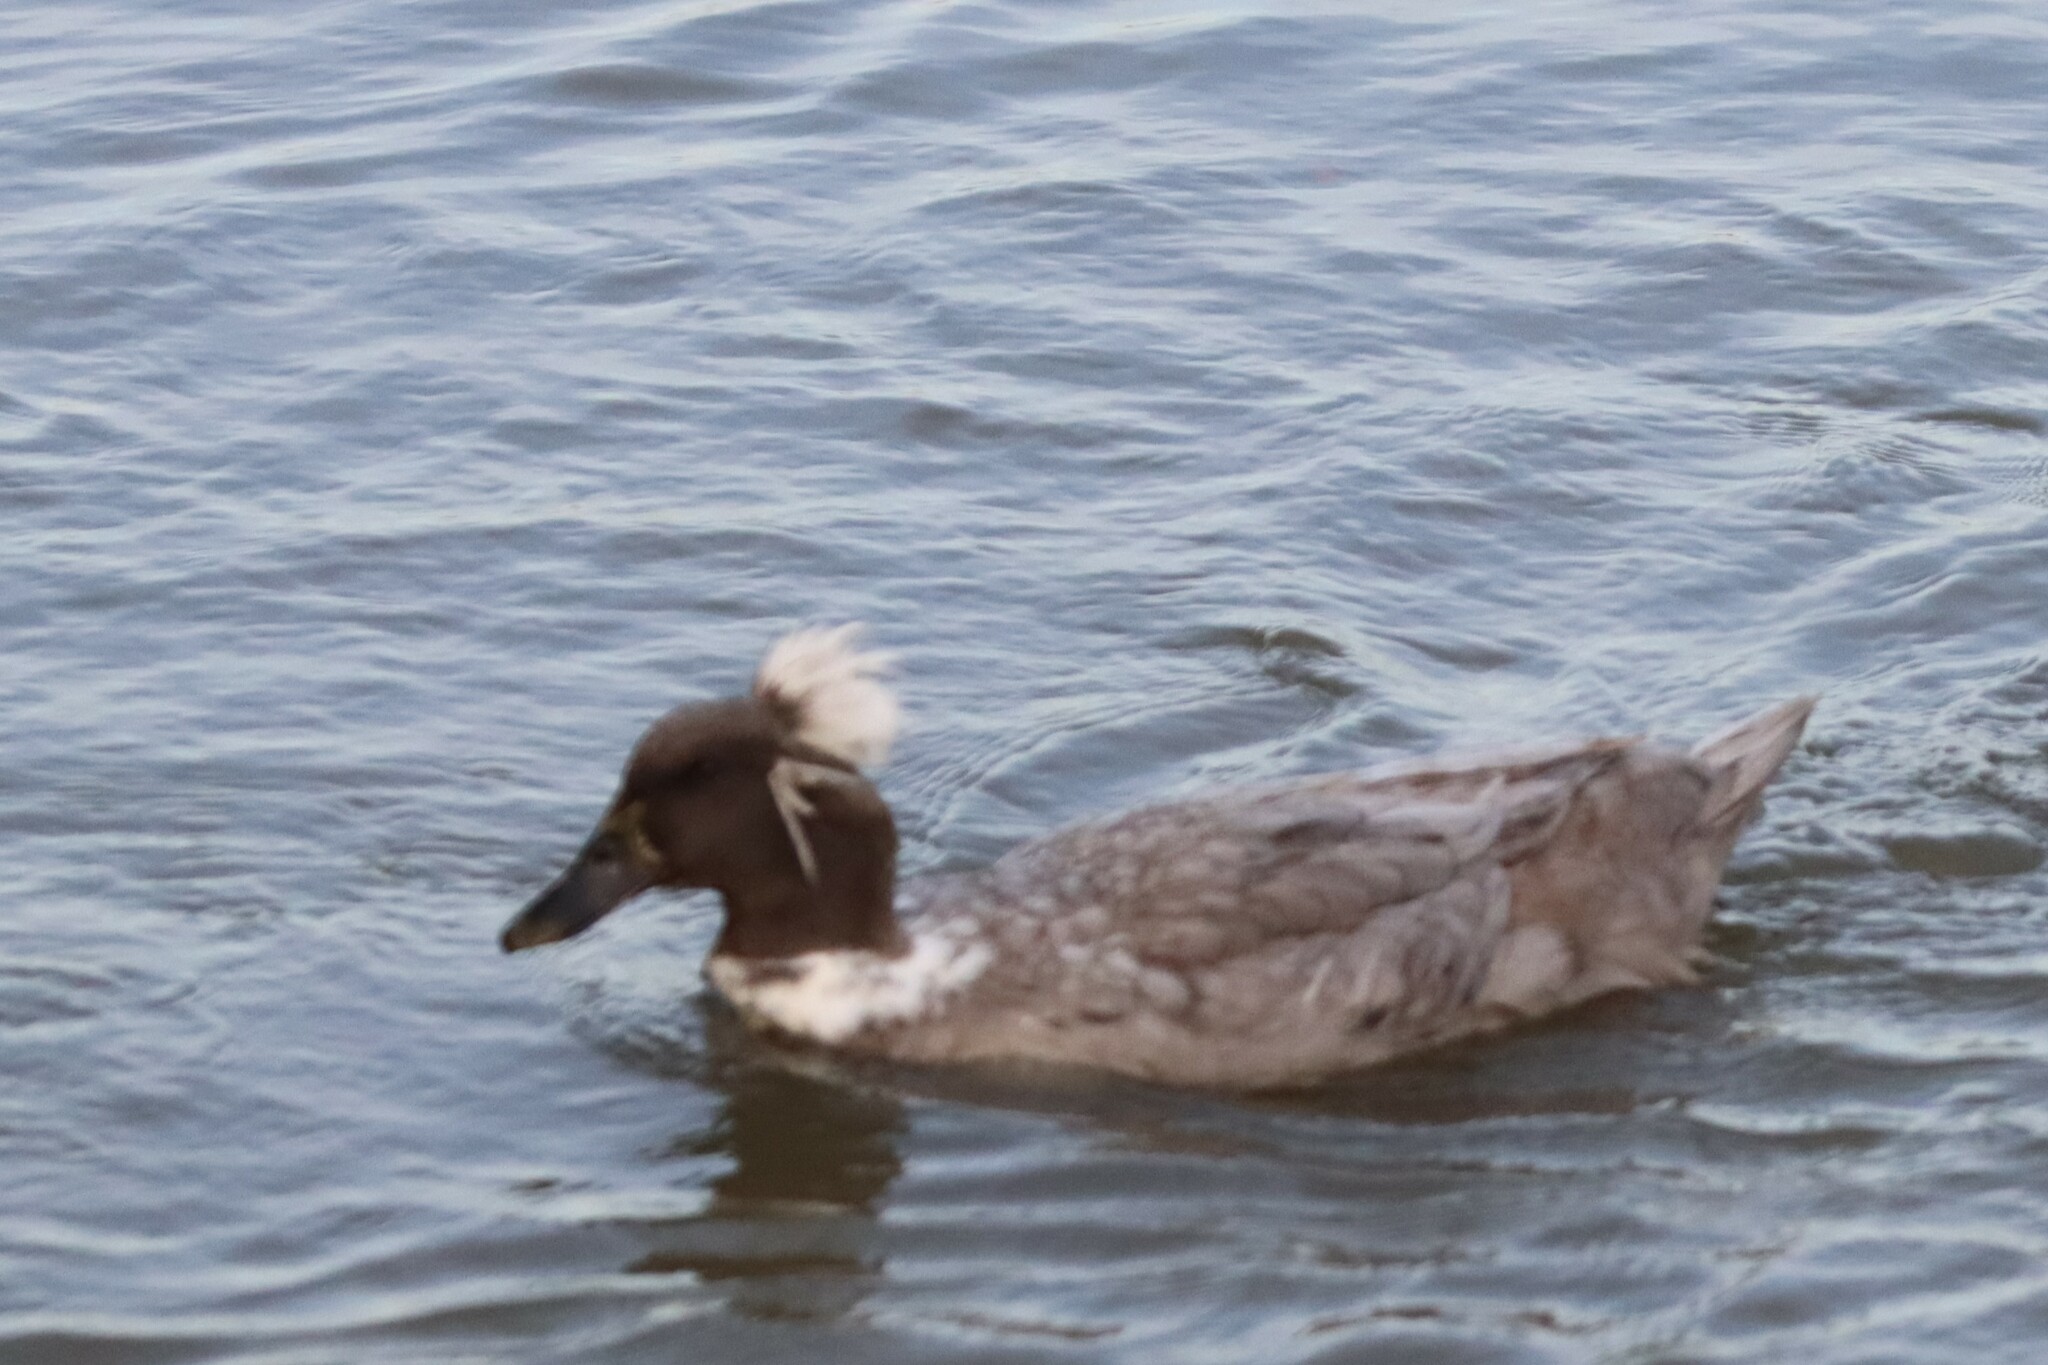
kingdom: Animalia
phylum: Chordata
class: Aves
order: Anseriformes
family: Anatidae
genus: Anas
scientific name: Anas platyrhynchos
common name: Mallard
